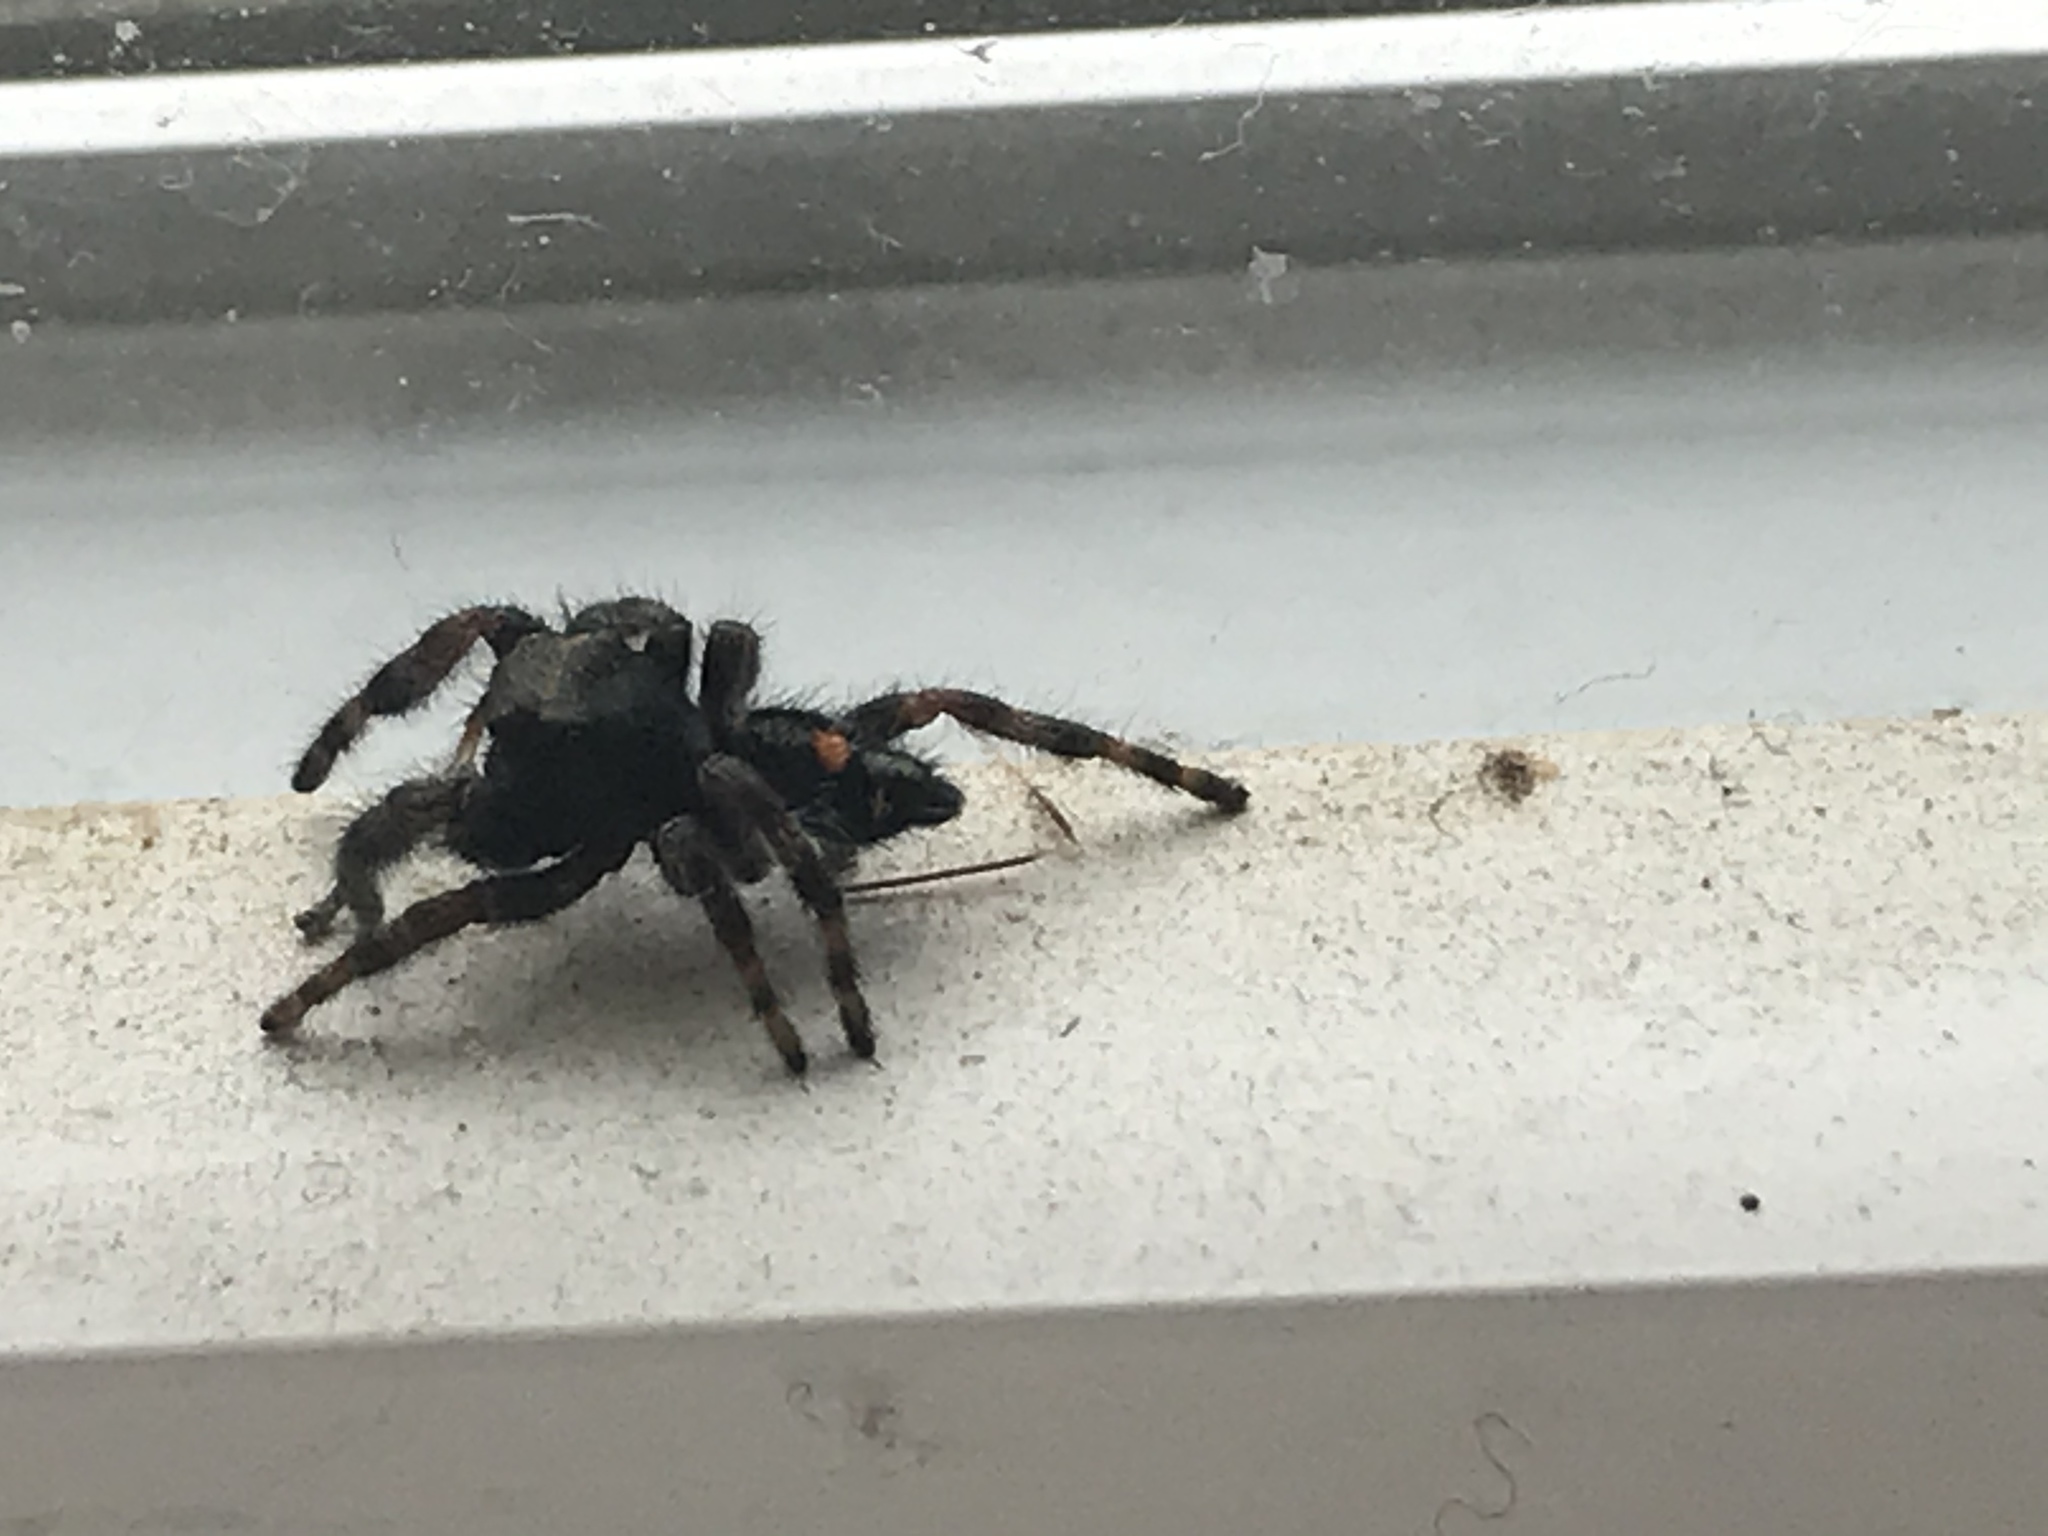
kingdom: Animalia
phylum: Arthropoda
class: Arachnida
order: Araneae
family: Salticidae
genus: Phidippus
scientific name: Phidippus audax
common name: Bold jumper
